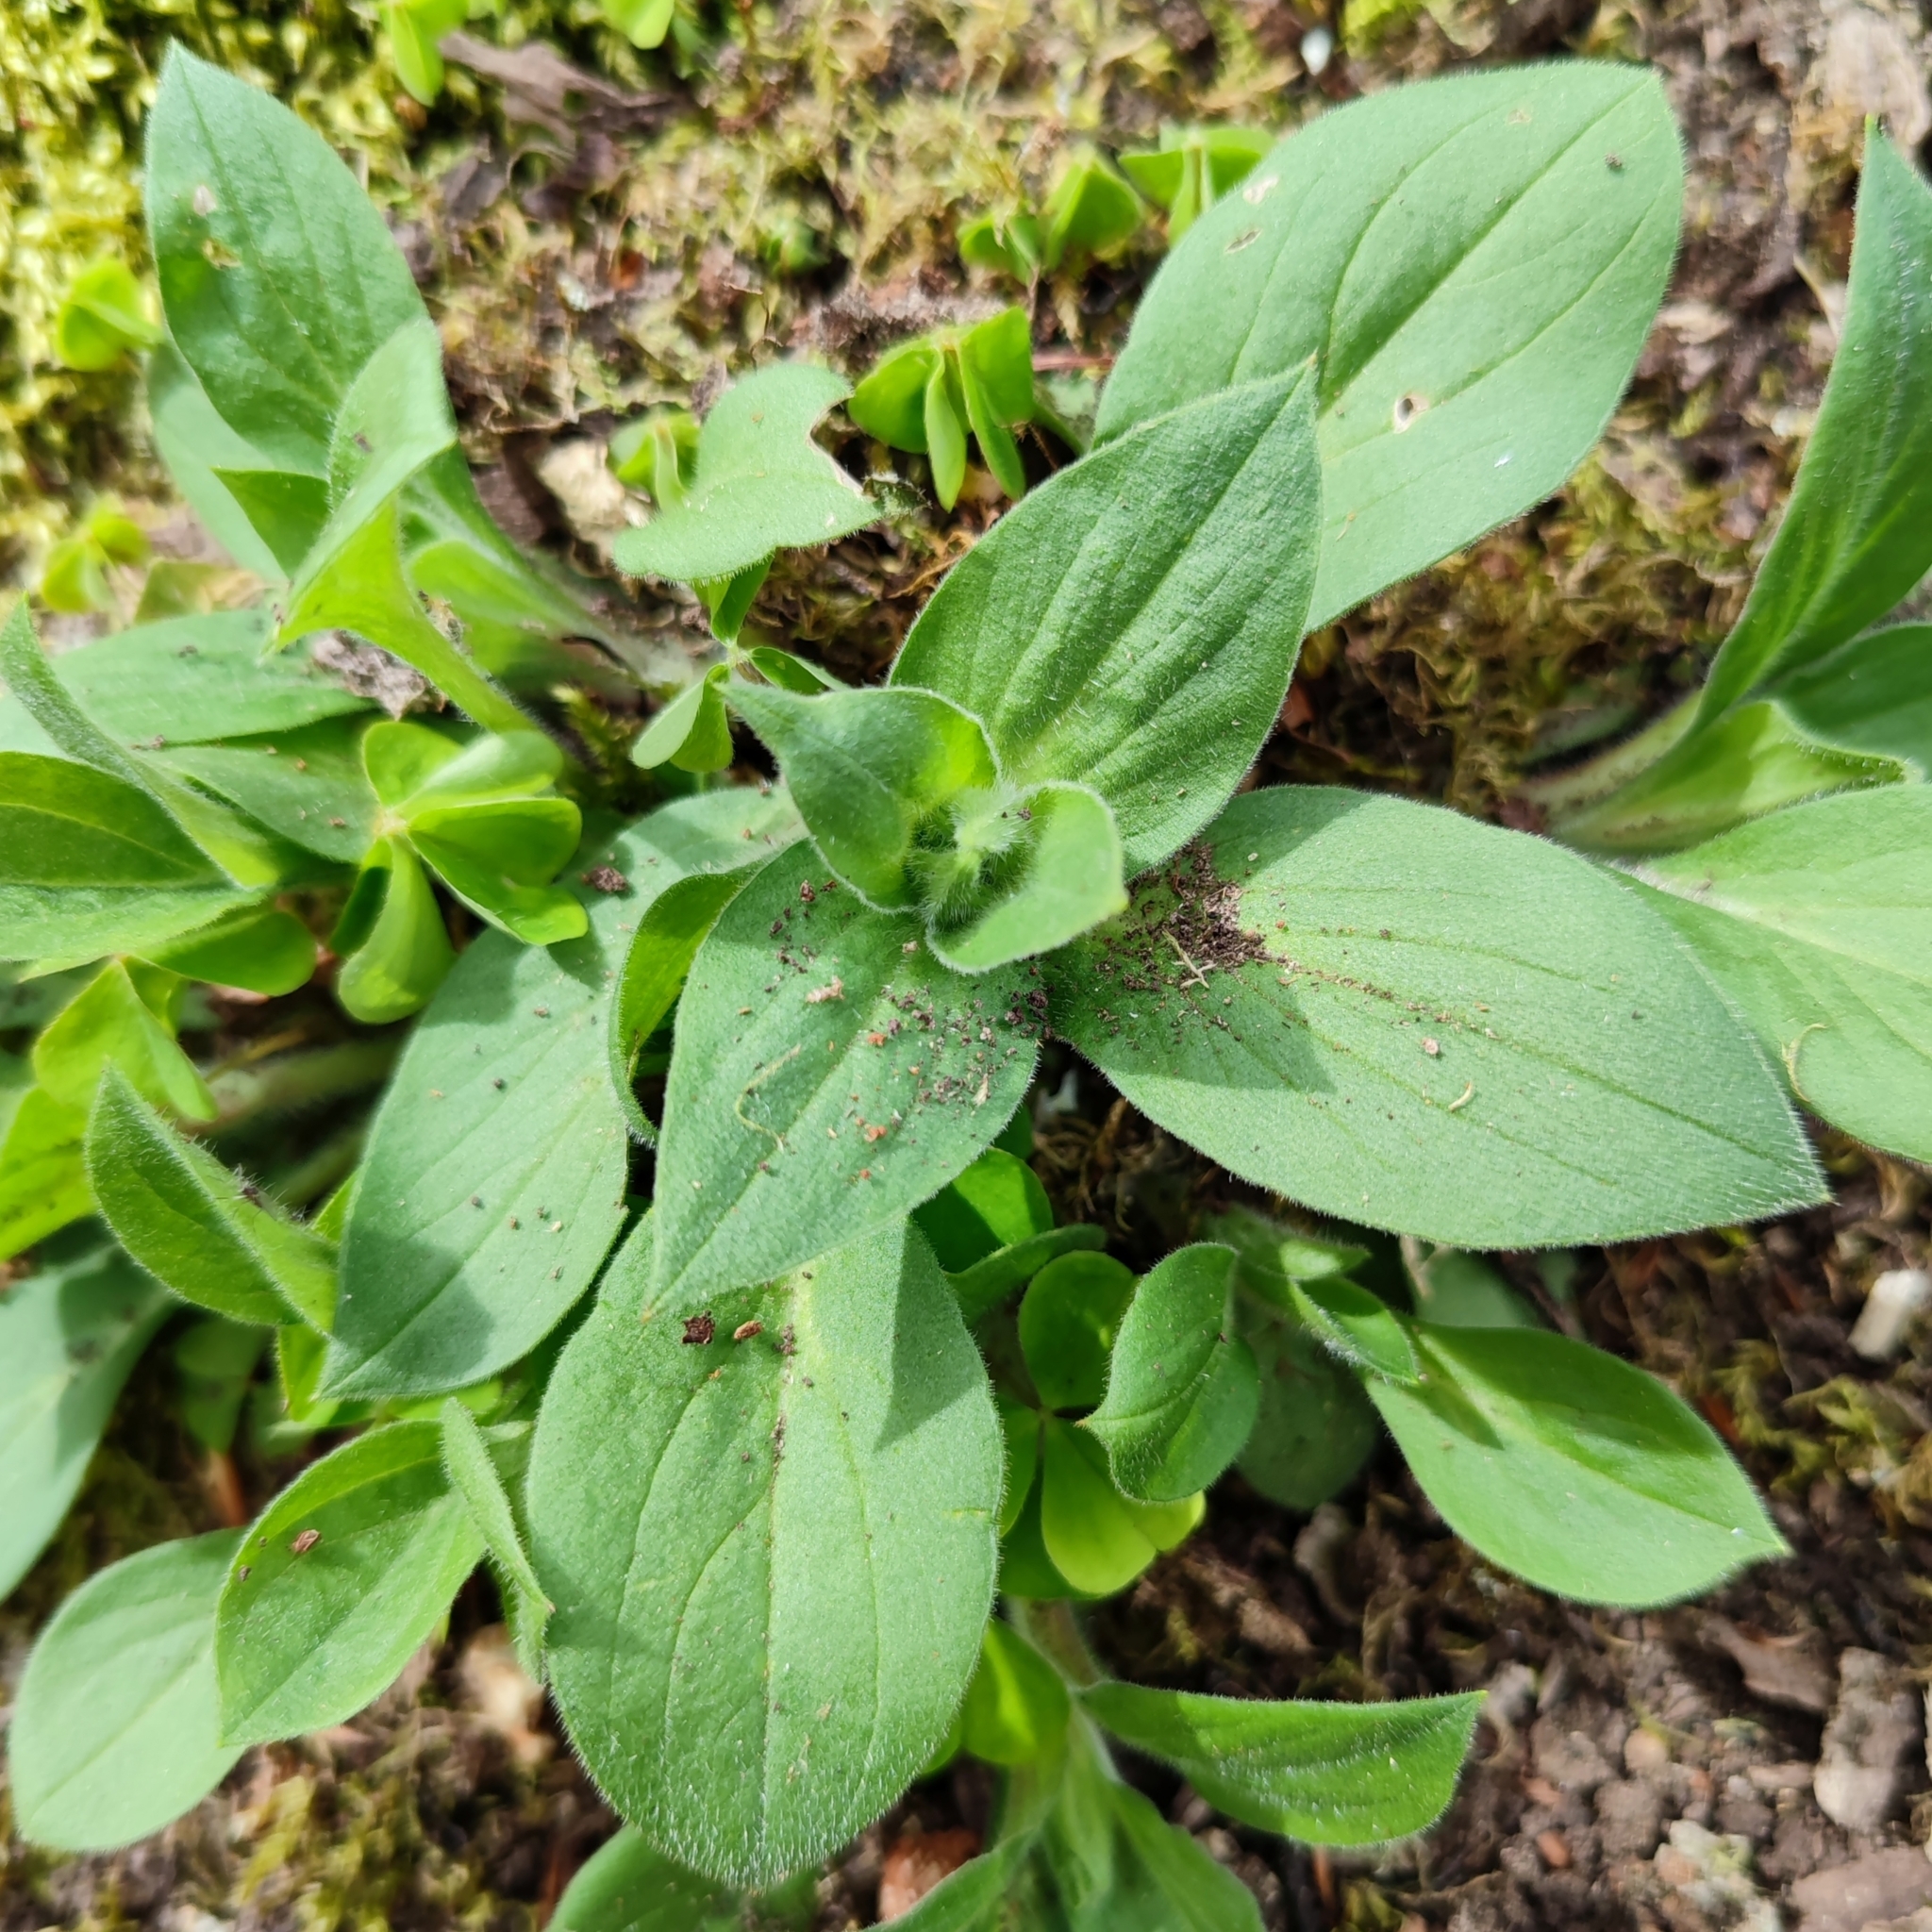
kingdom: Plantae
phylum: Tracheophyta
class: Magnoliopsida
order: Caryophyllales
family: Caryophyllaceae
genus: Silene
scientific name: Silene dioica
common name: Red campion
